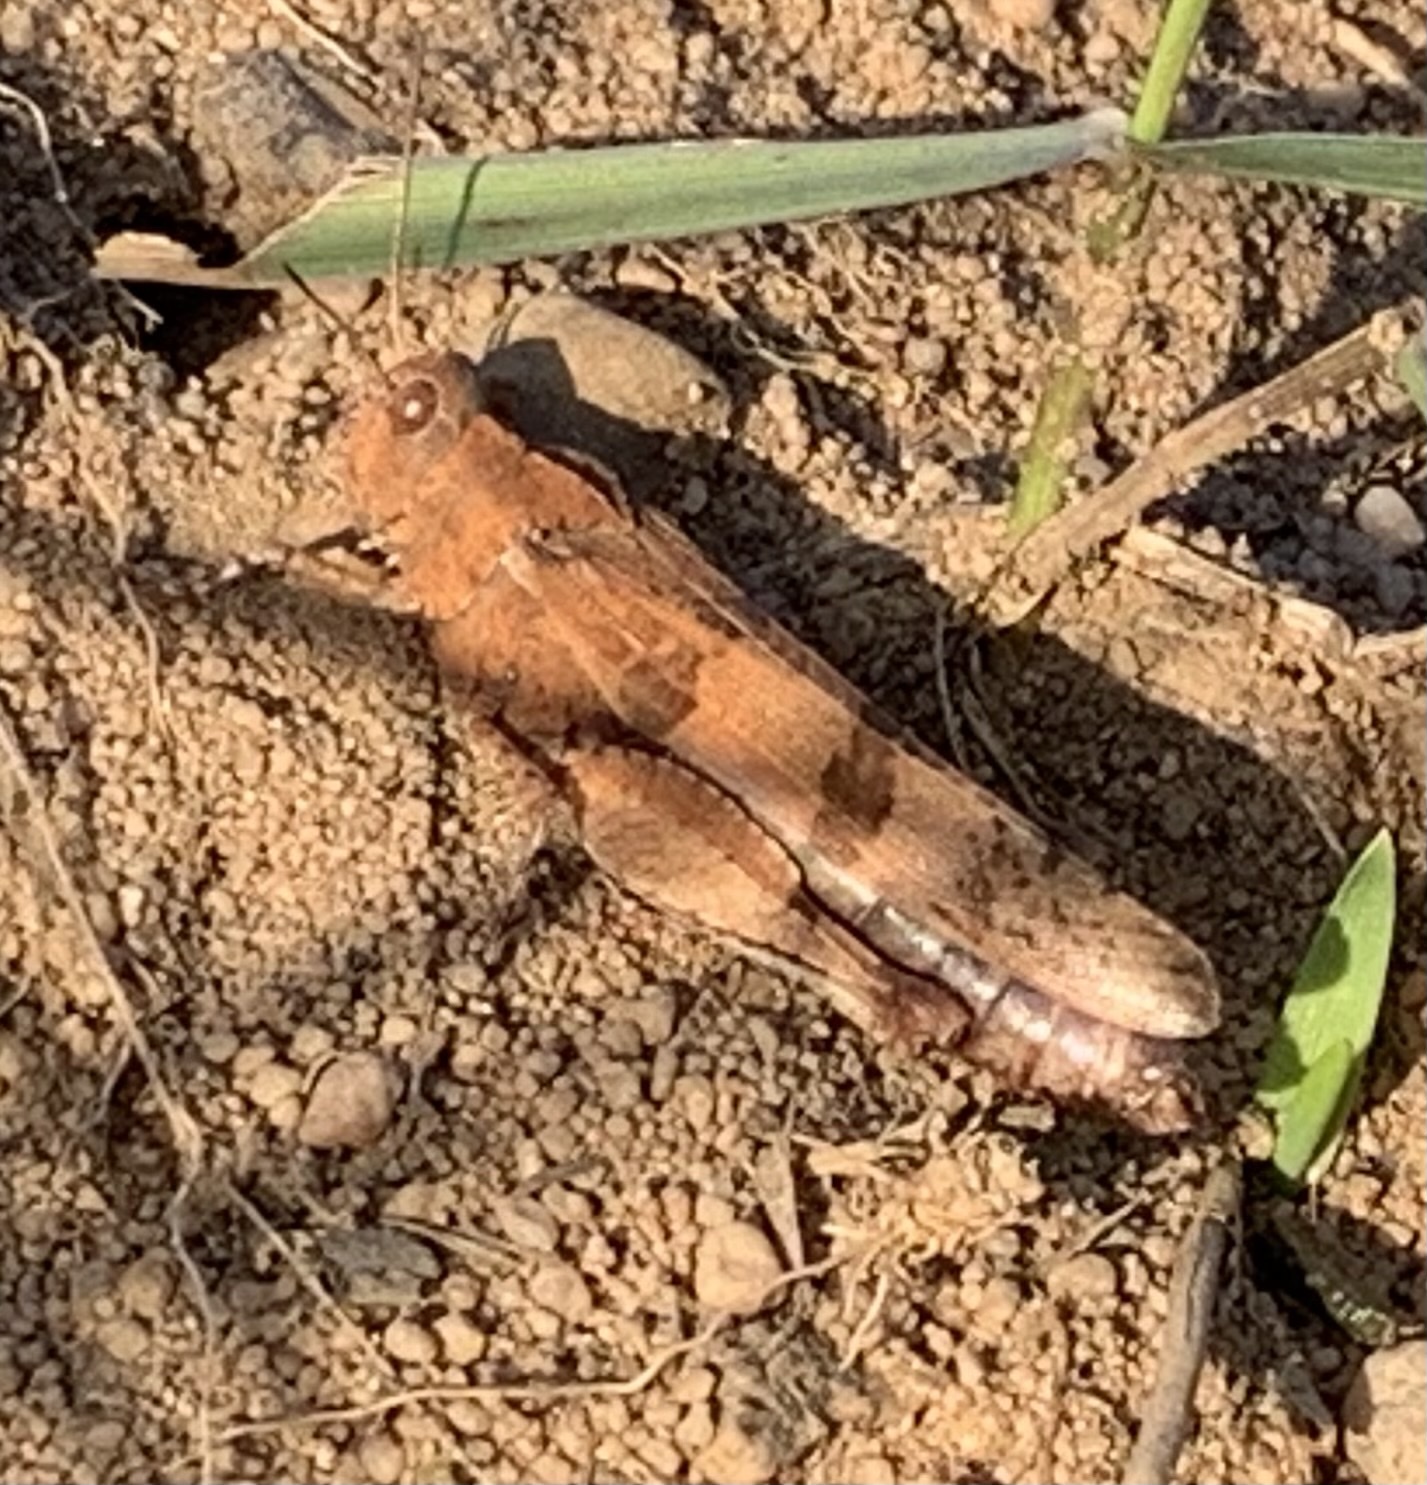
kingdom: Animalia
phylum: Arthropoda
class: Insecta
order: Orthoptera
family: Acrididae
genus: Oedipoda
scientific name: Oedipoda caerulescens
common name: Blue-winged grasshopper
